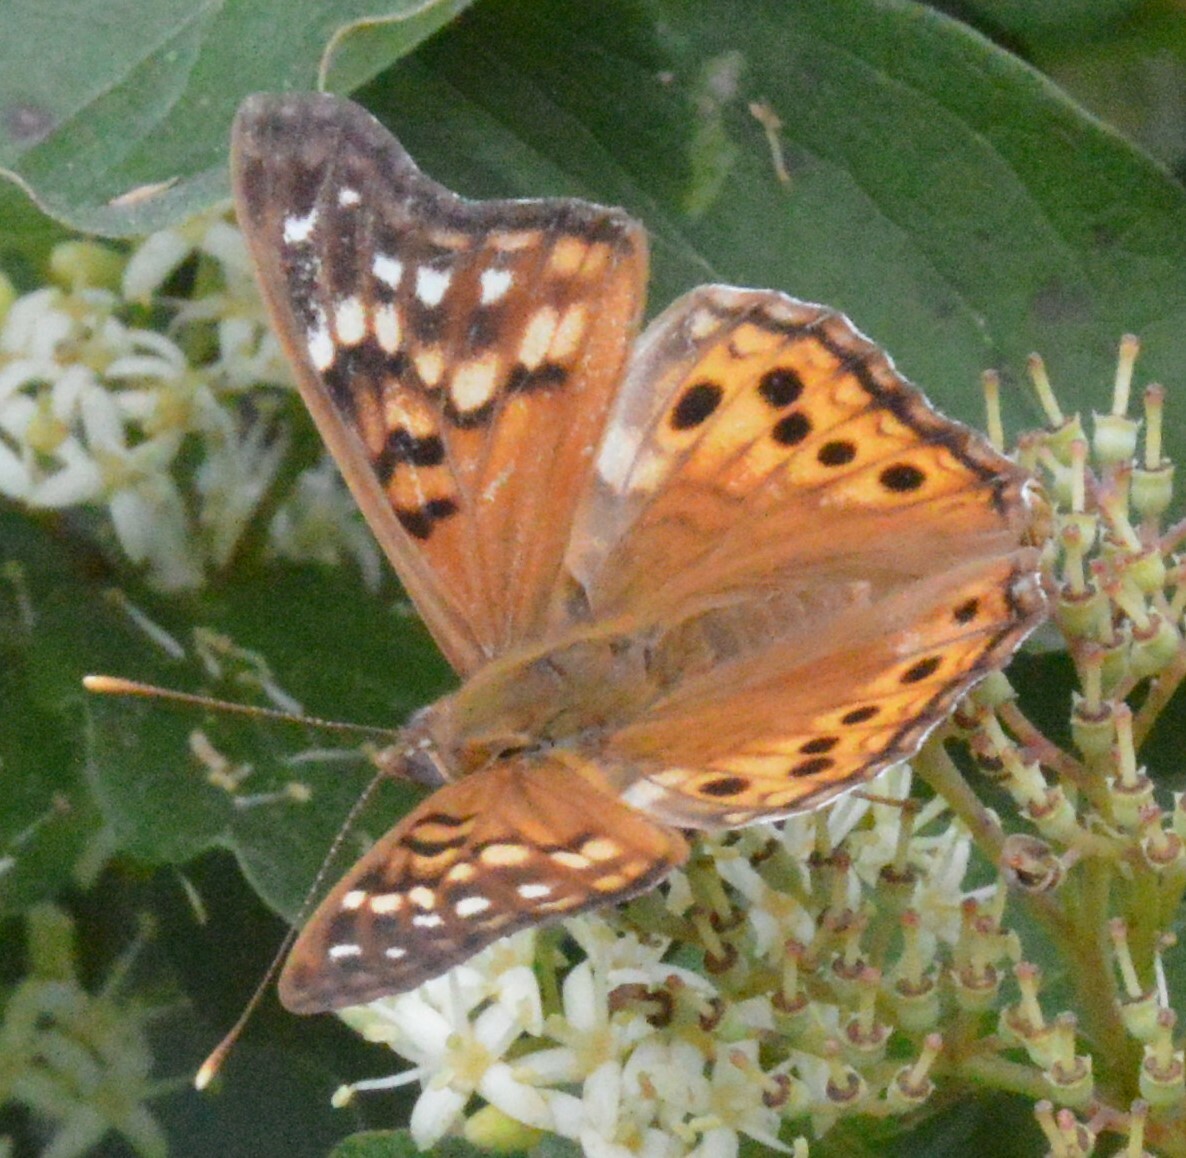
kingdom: Animalia
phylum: Arthropoda
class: Insecta
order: Lepidoptera
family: Nymphalidae
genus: Asterocampa
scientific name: Asterocampa clyton
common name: Tawny emperor
